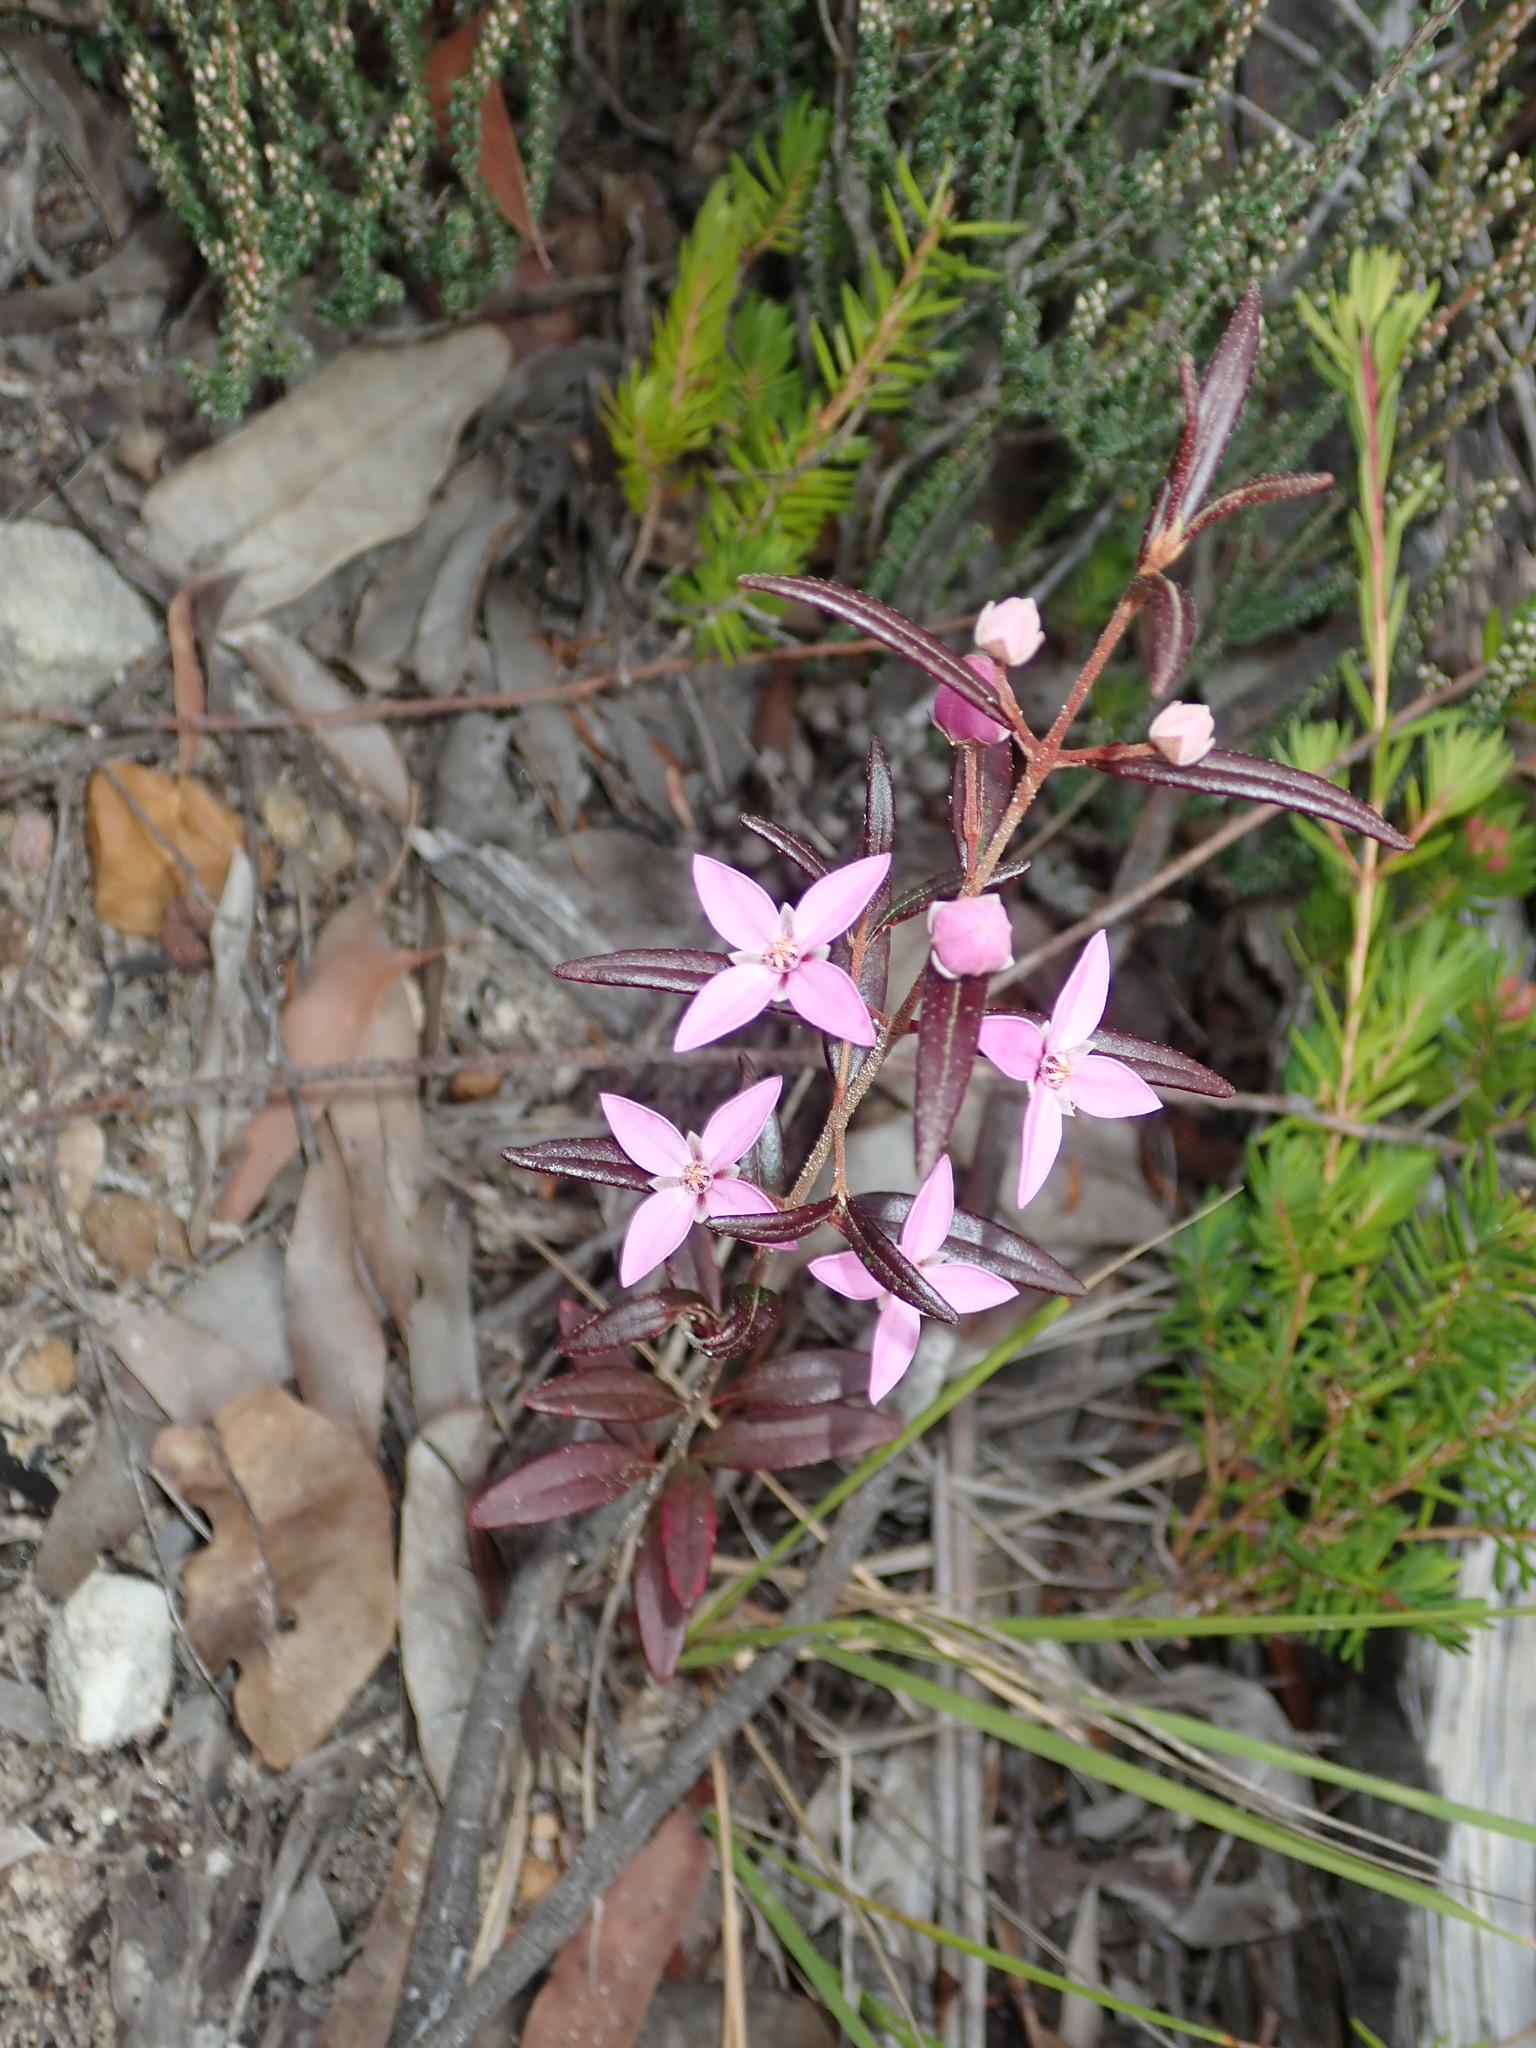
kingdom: Plantae
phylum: Tracheophyta
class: Magnoliopsida
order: Sapindales
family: Rutaceae
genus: Boronia
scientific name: Boronia ledifolia
